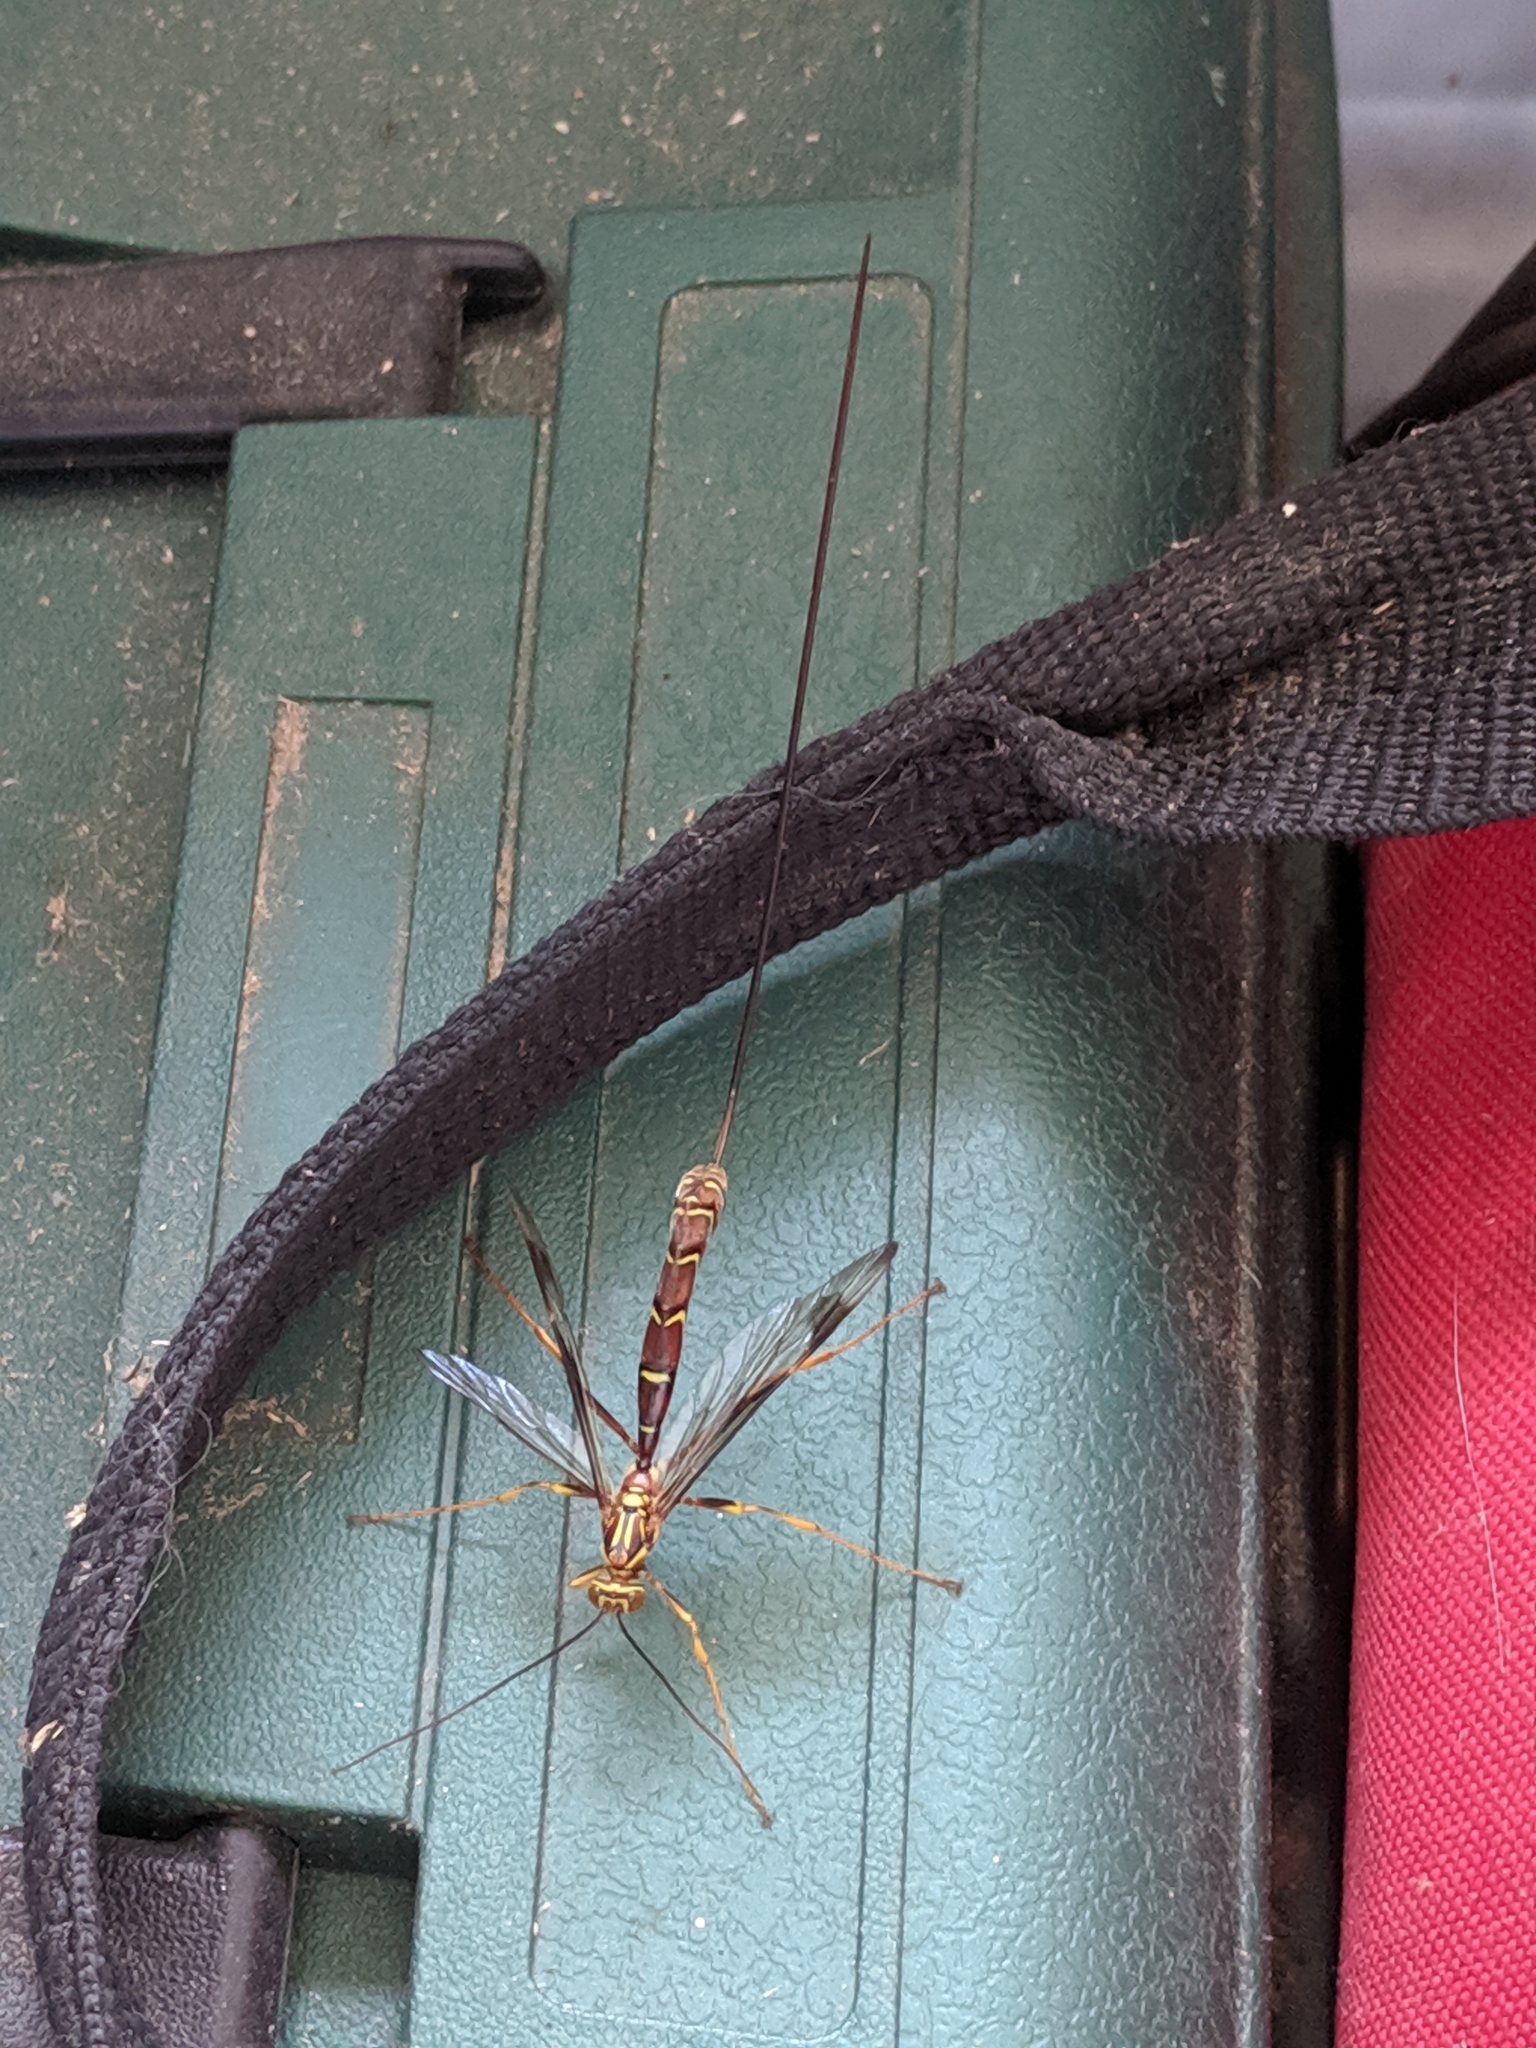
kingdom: Animalia
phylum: Arthropoda
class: Insecta
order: Hymenoptera
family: Ichneumonidae
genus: Megarhyssa
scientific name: Megarhyssa macrura
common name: Long-tailed giant ichneumonid wasp
